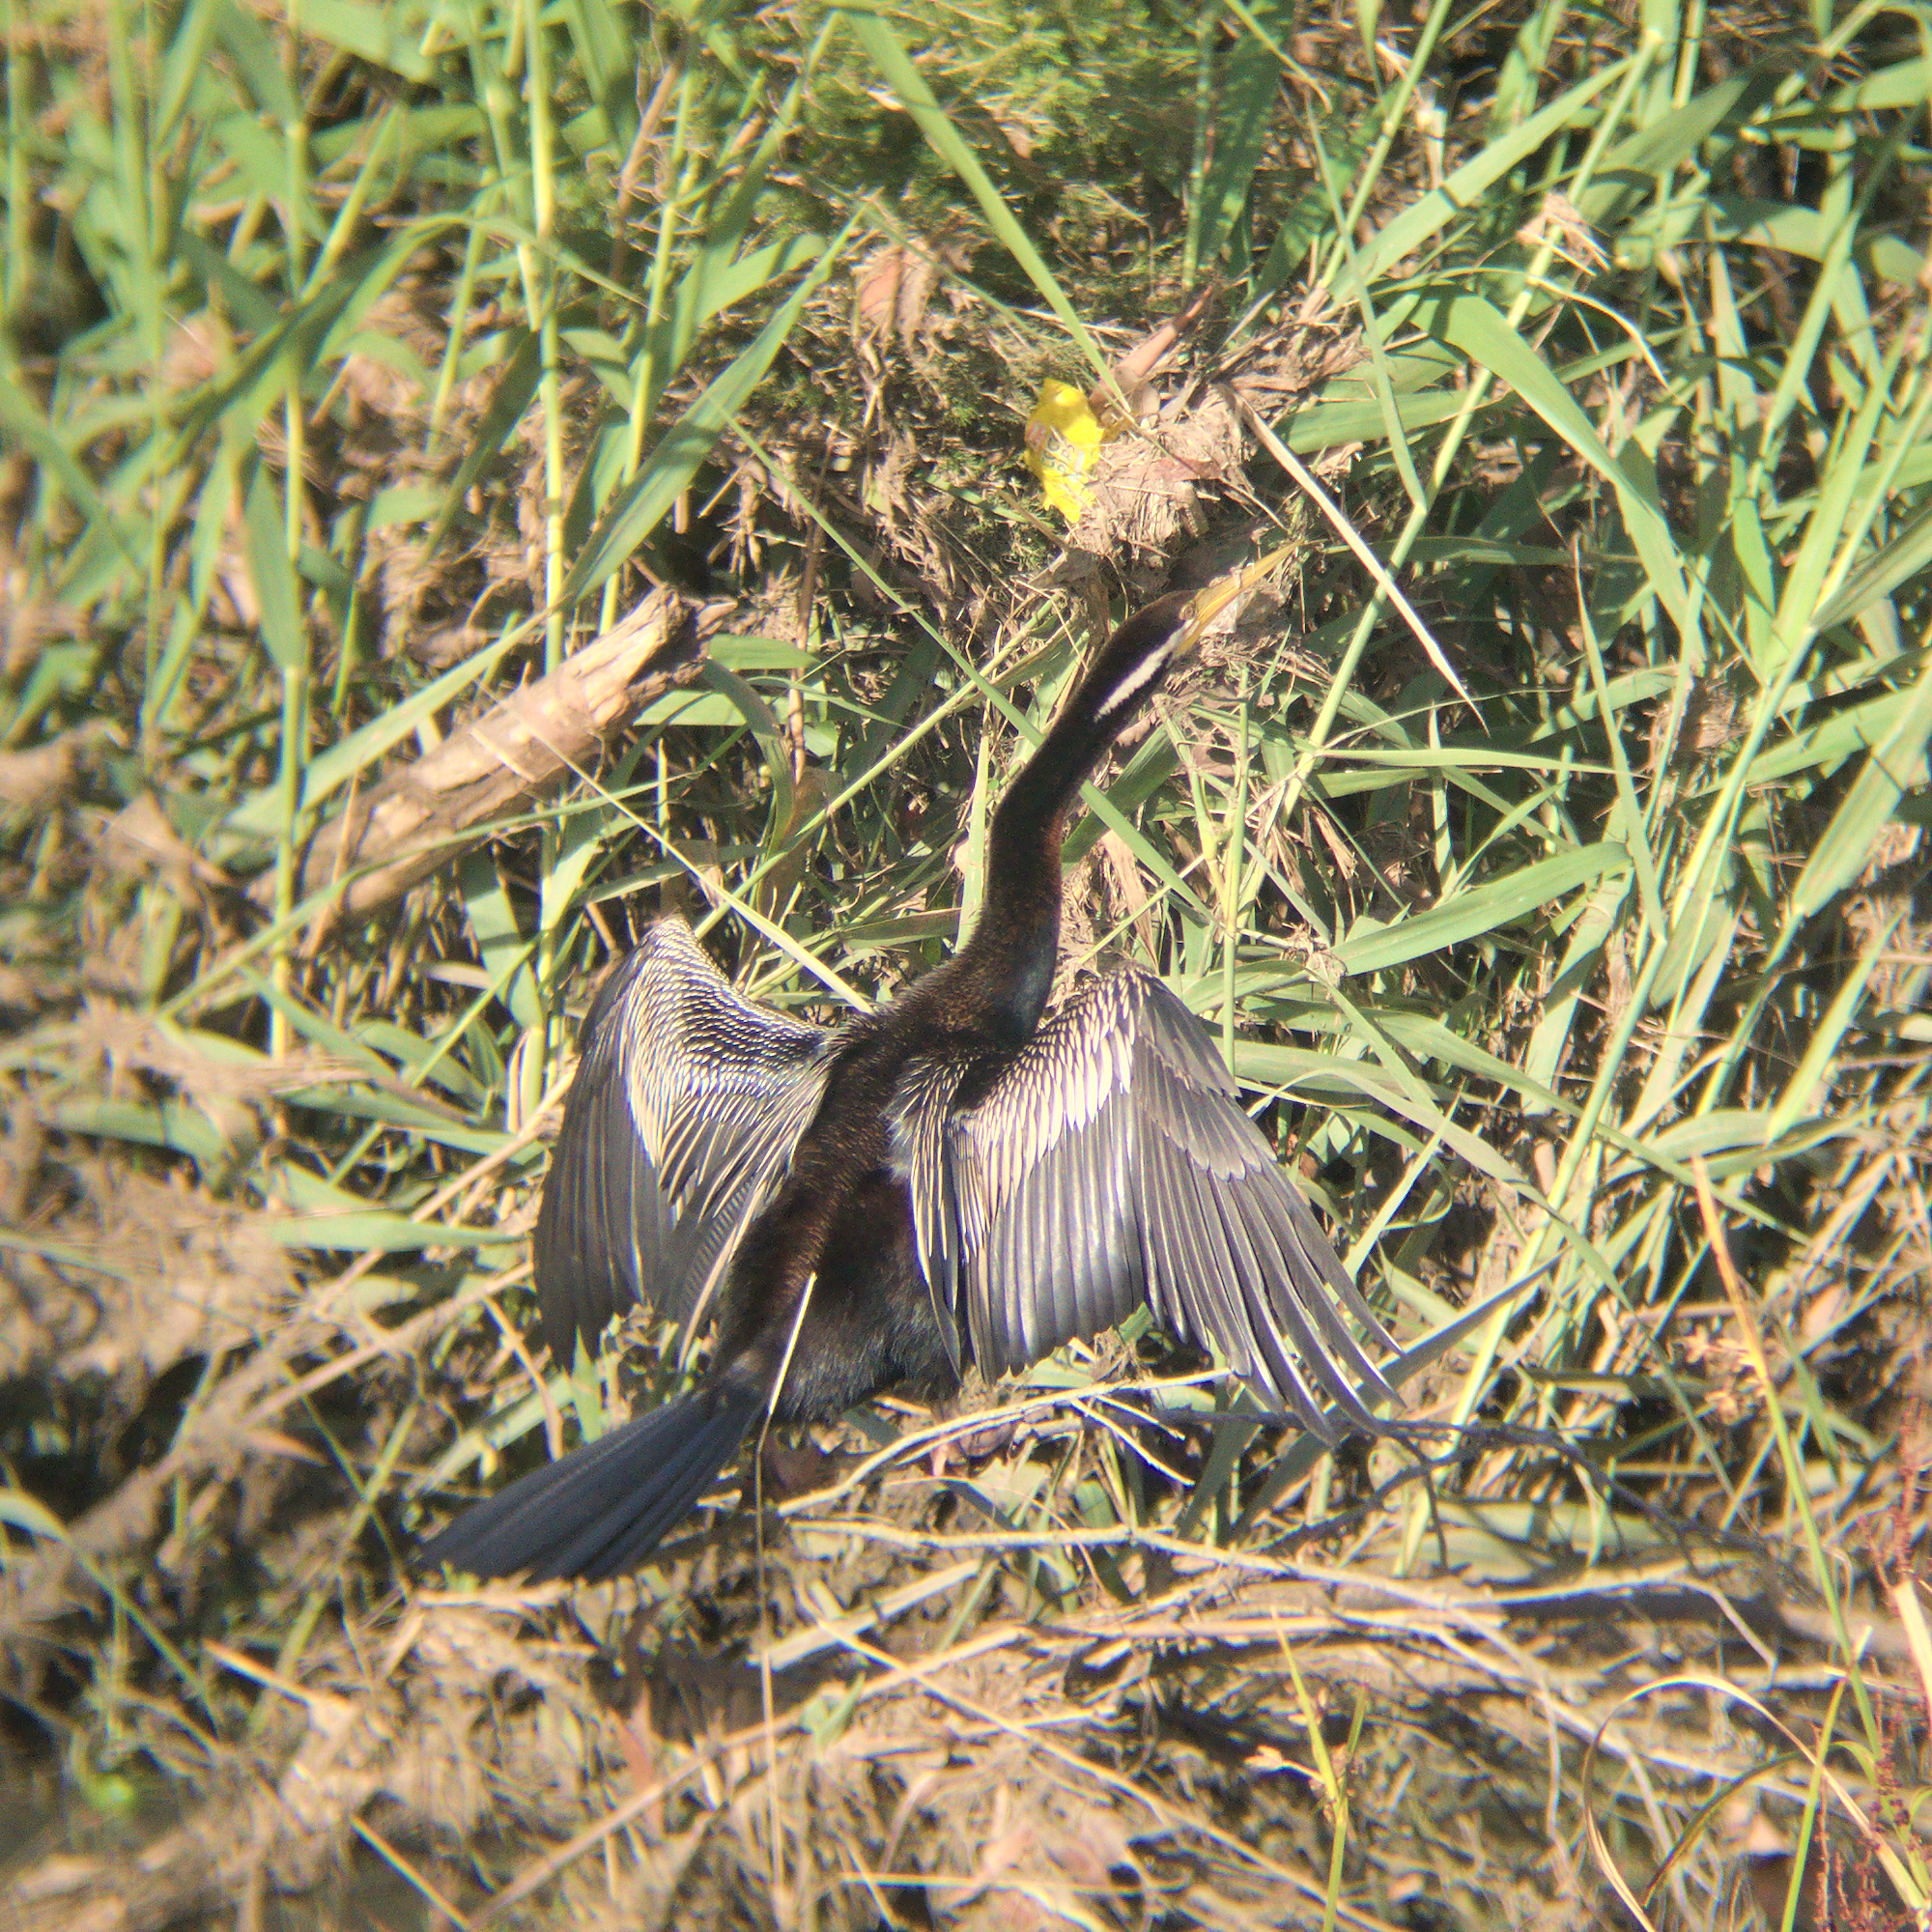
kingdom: Animalia
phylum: Chordata
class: Aves
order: Suliformes
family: Anhingidae
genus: Anhinga
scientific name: Anhinga novaehollandiae
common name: Australasian darter
